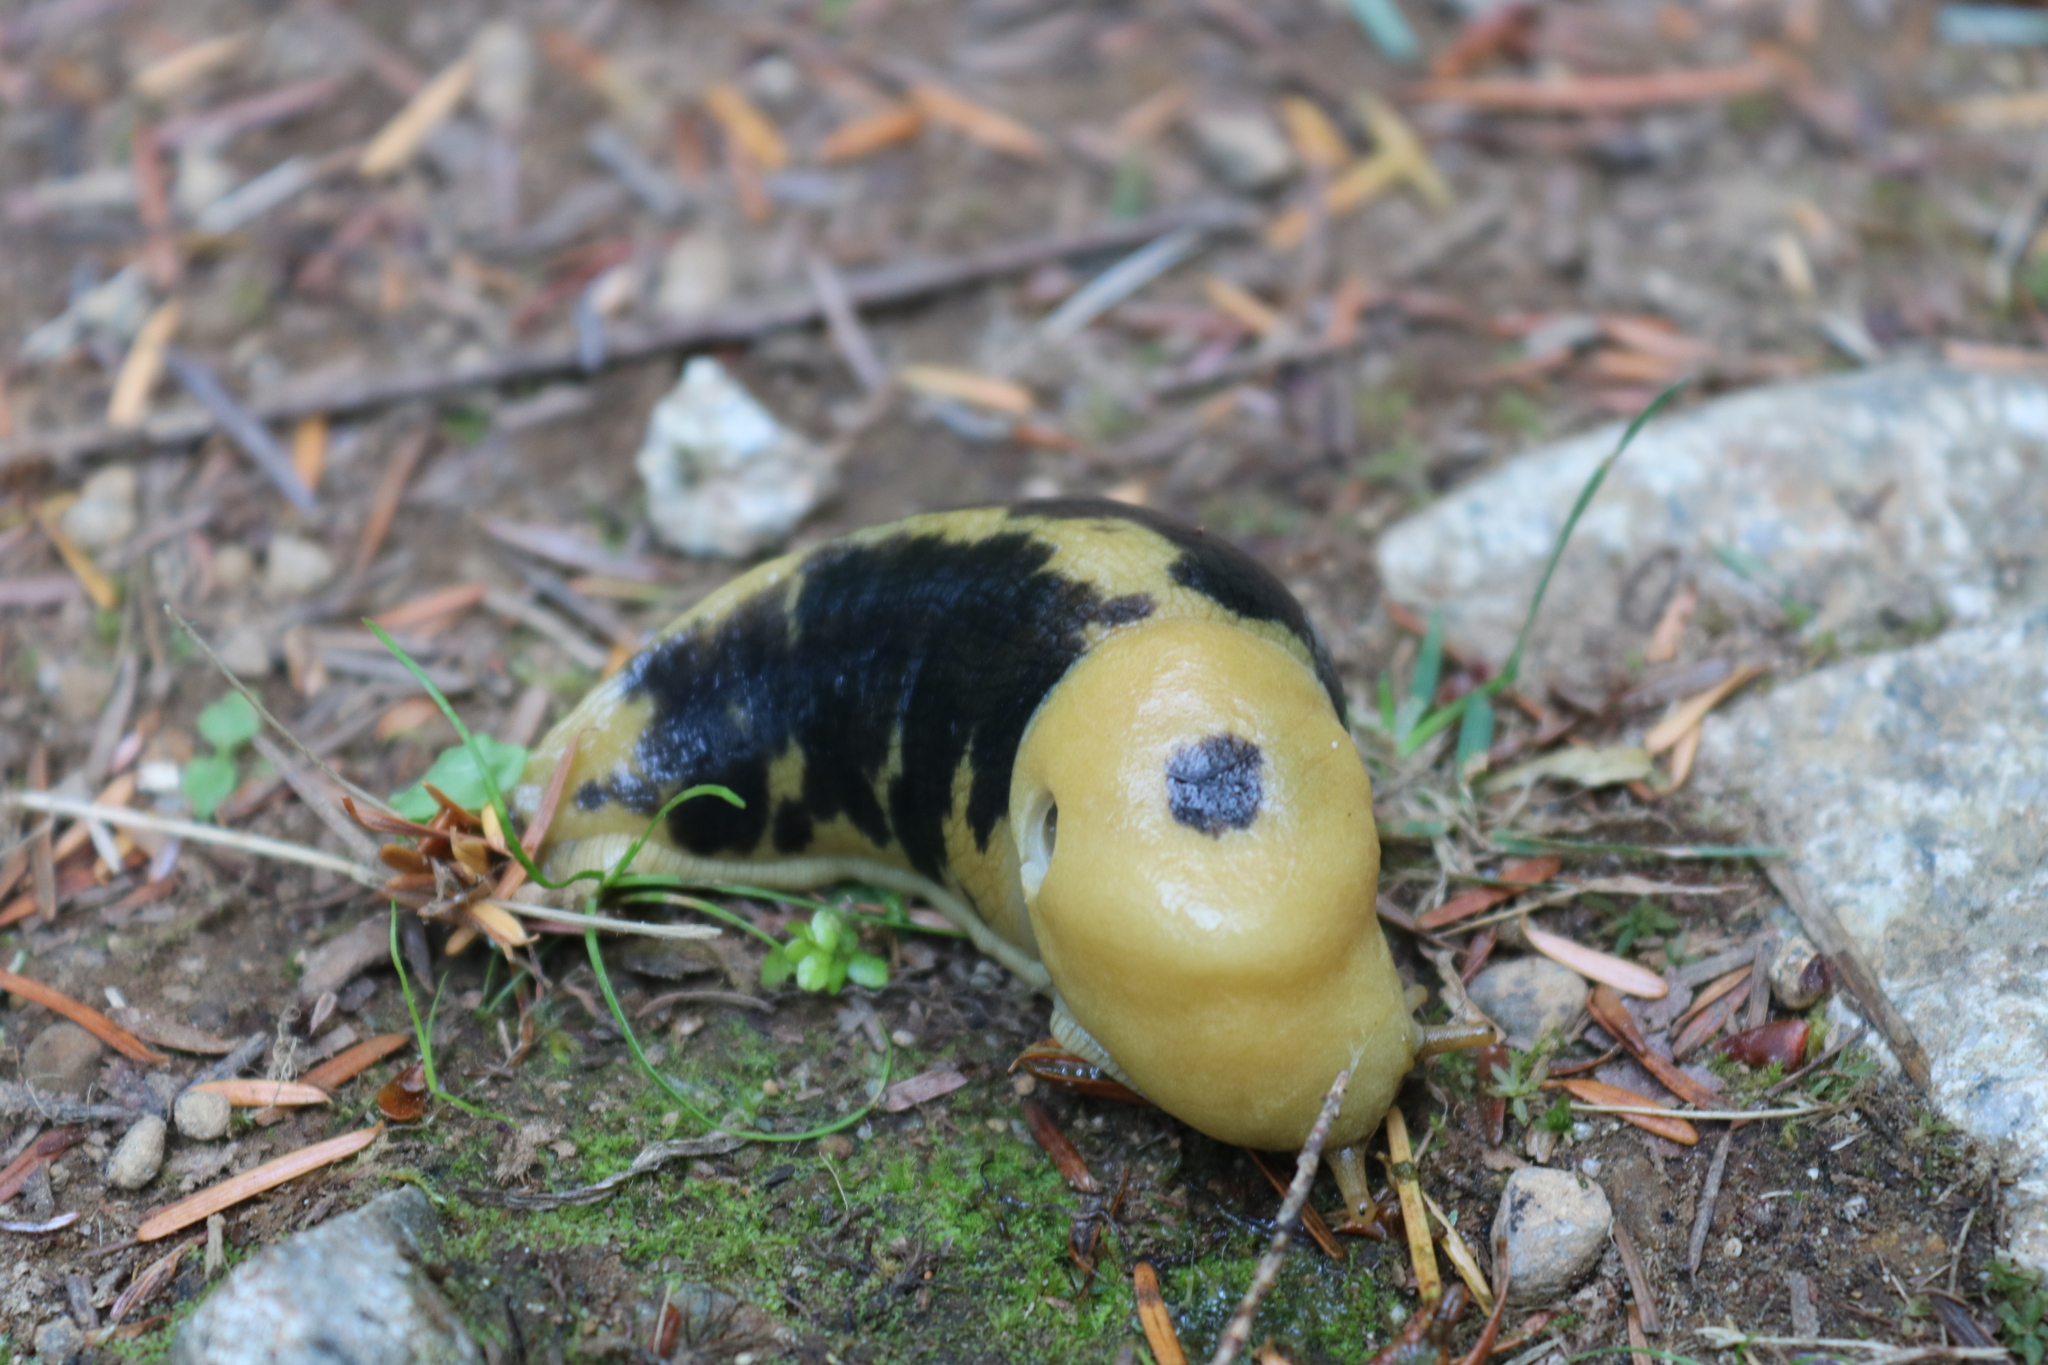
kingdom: Animalia
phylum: Mollusca
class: Gastropoda
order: Stylommatophora
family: Ariolimacidae
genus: Ariolimax
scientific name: Ariolimax columbianus
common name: Pacific banana slug
